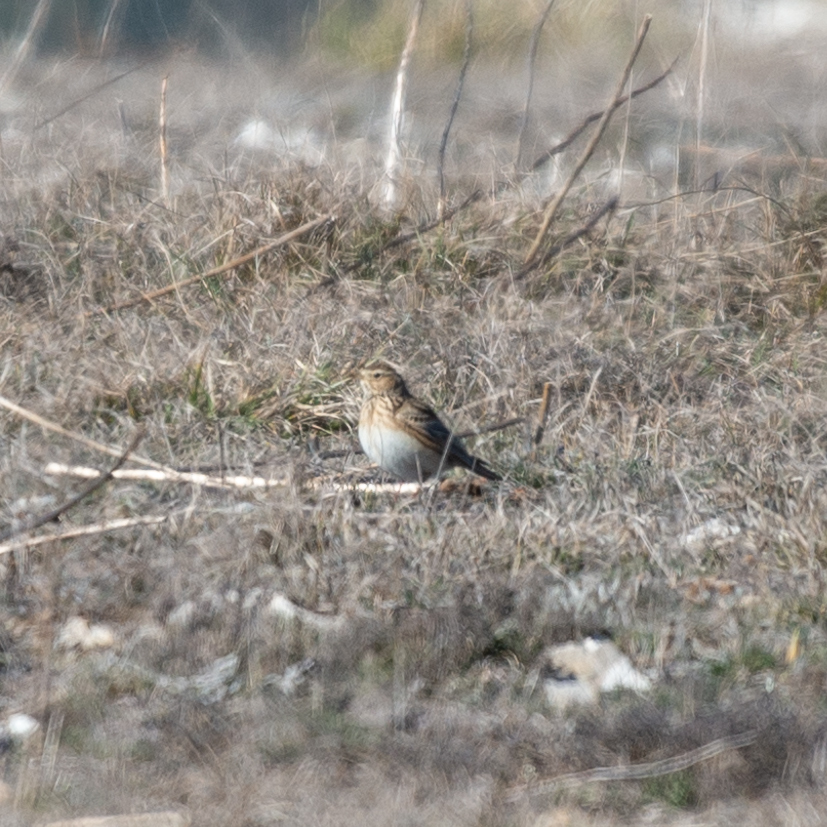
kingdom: Animalia
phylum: Chordata
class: Aves
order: Passeriformes
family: Alaudidae
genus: Alauda
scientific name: Alauda arvensis
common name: Eurasian skylark
